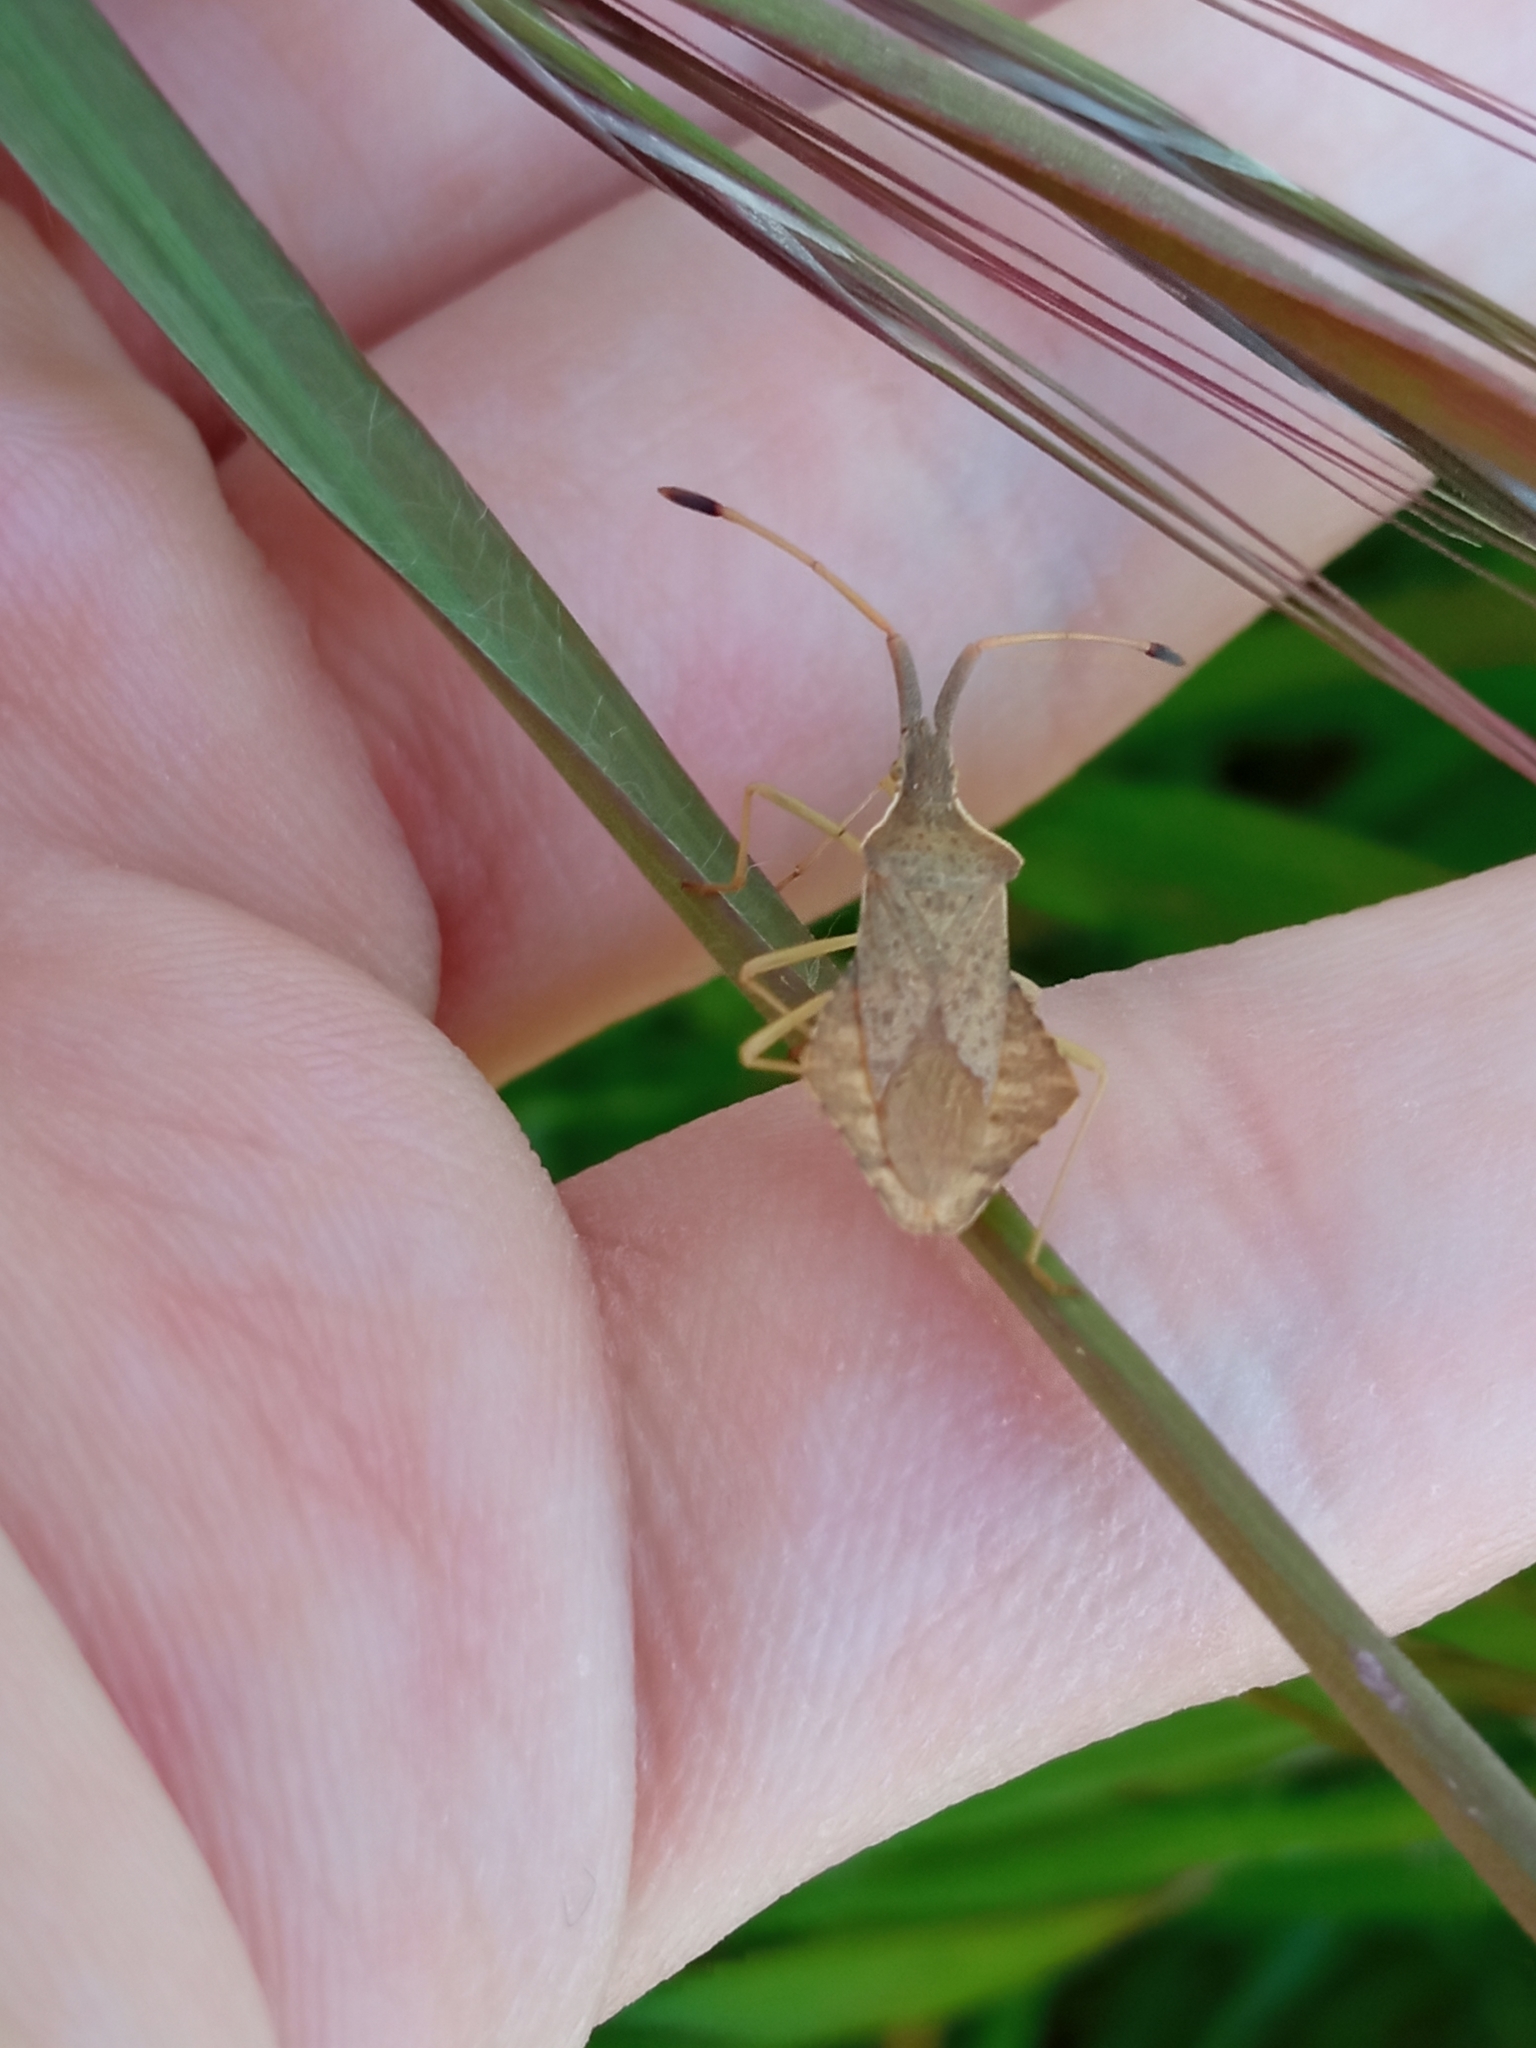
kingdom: Animalia
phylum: Arthropoda
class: Insecta
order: Hemiptera
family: Coreidae
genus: Syromastus
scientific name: Syromastus rhombeus
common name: Rhombic leatherbug
